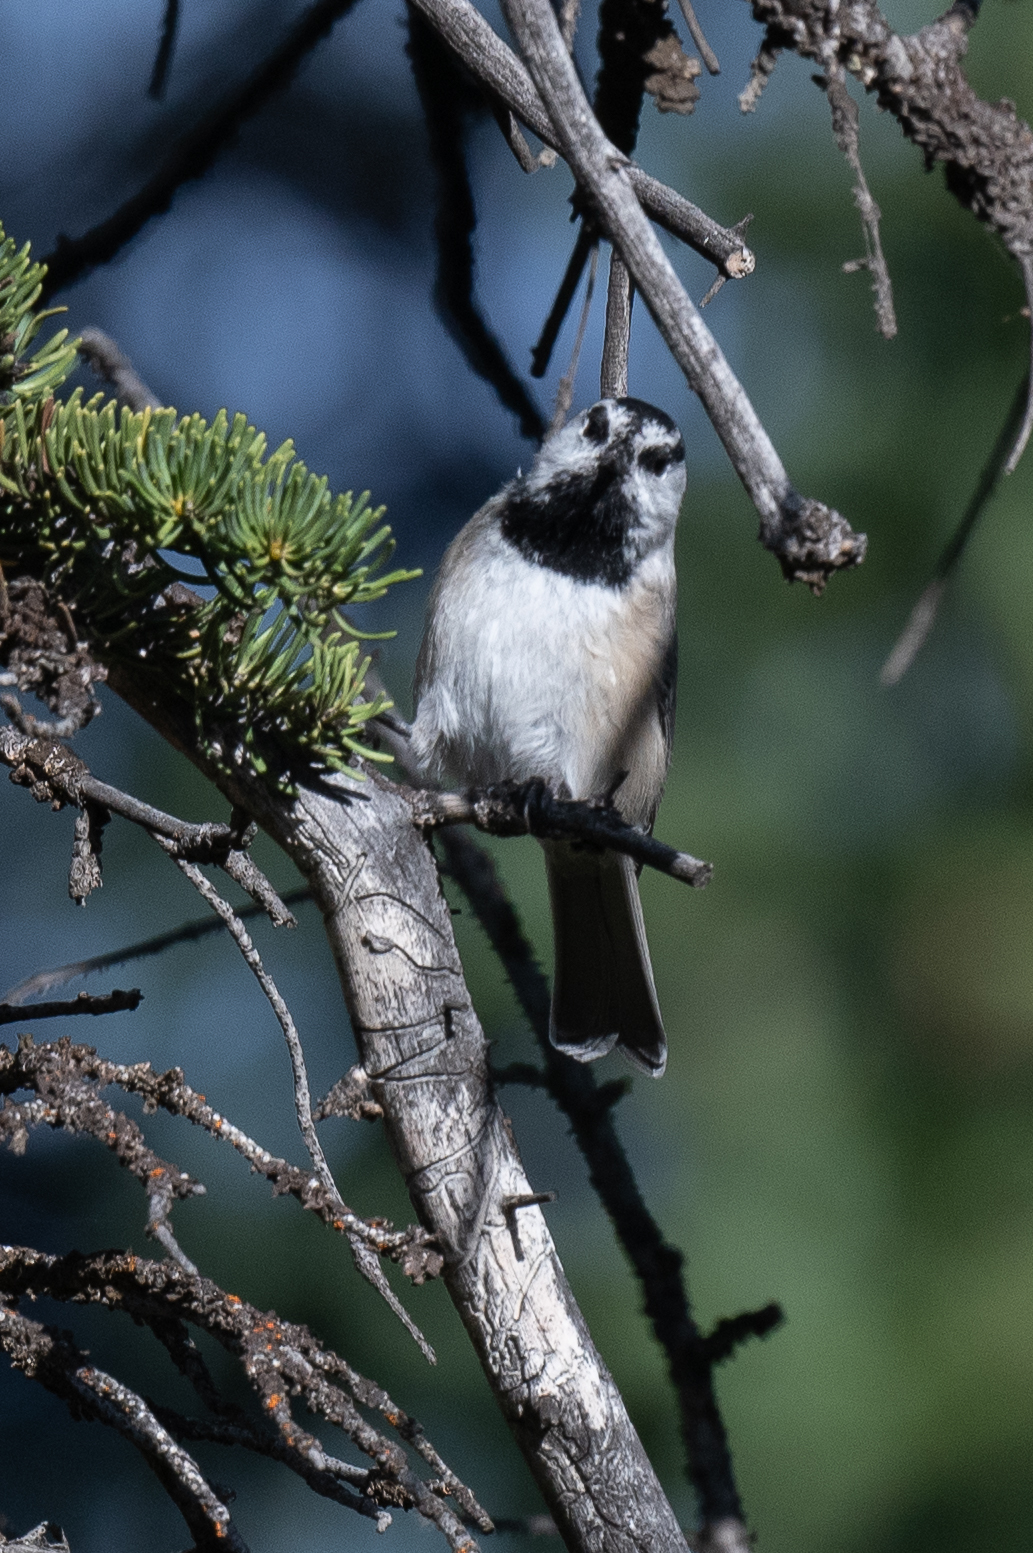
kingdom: Animalia
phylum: Chordata
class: Aves
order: Passeriformes
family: Paridae
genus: Poecile
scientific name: Poecile gambeli
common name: Mountain chickadee
